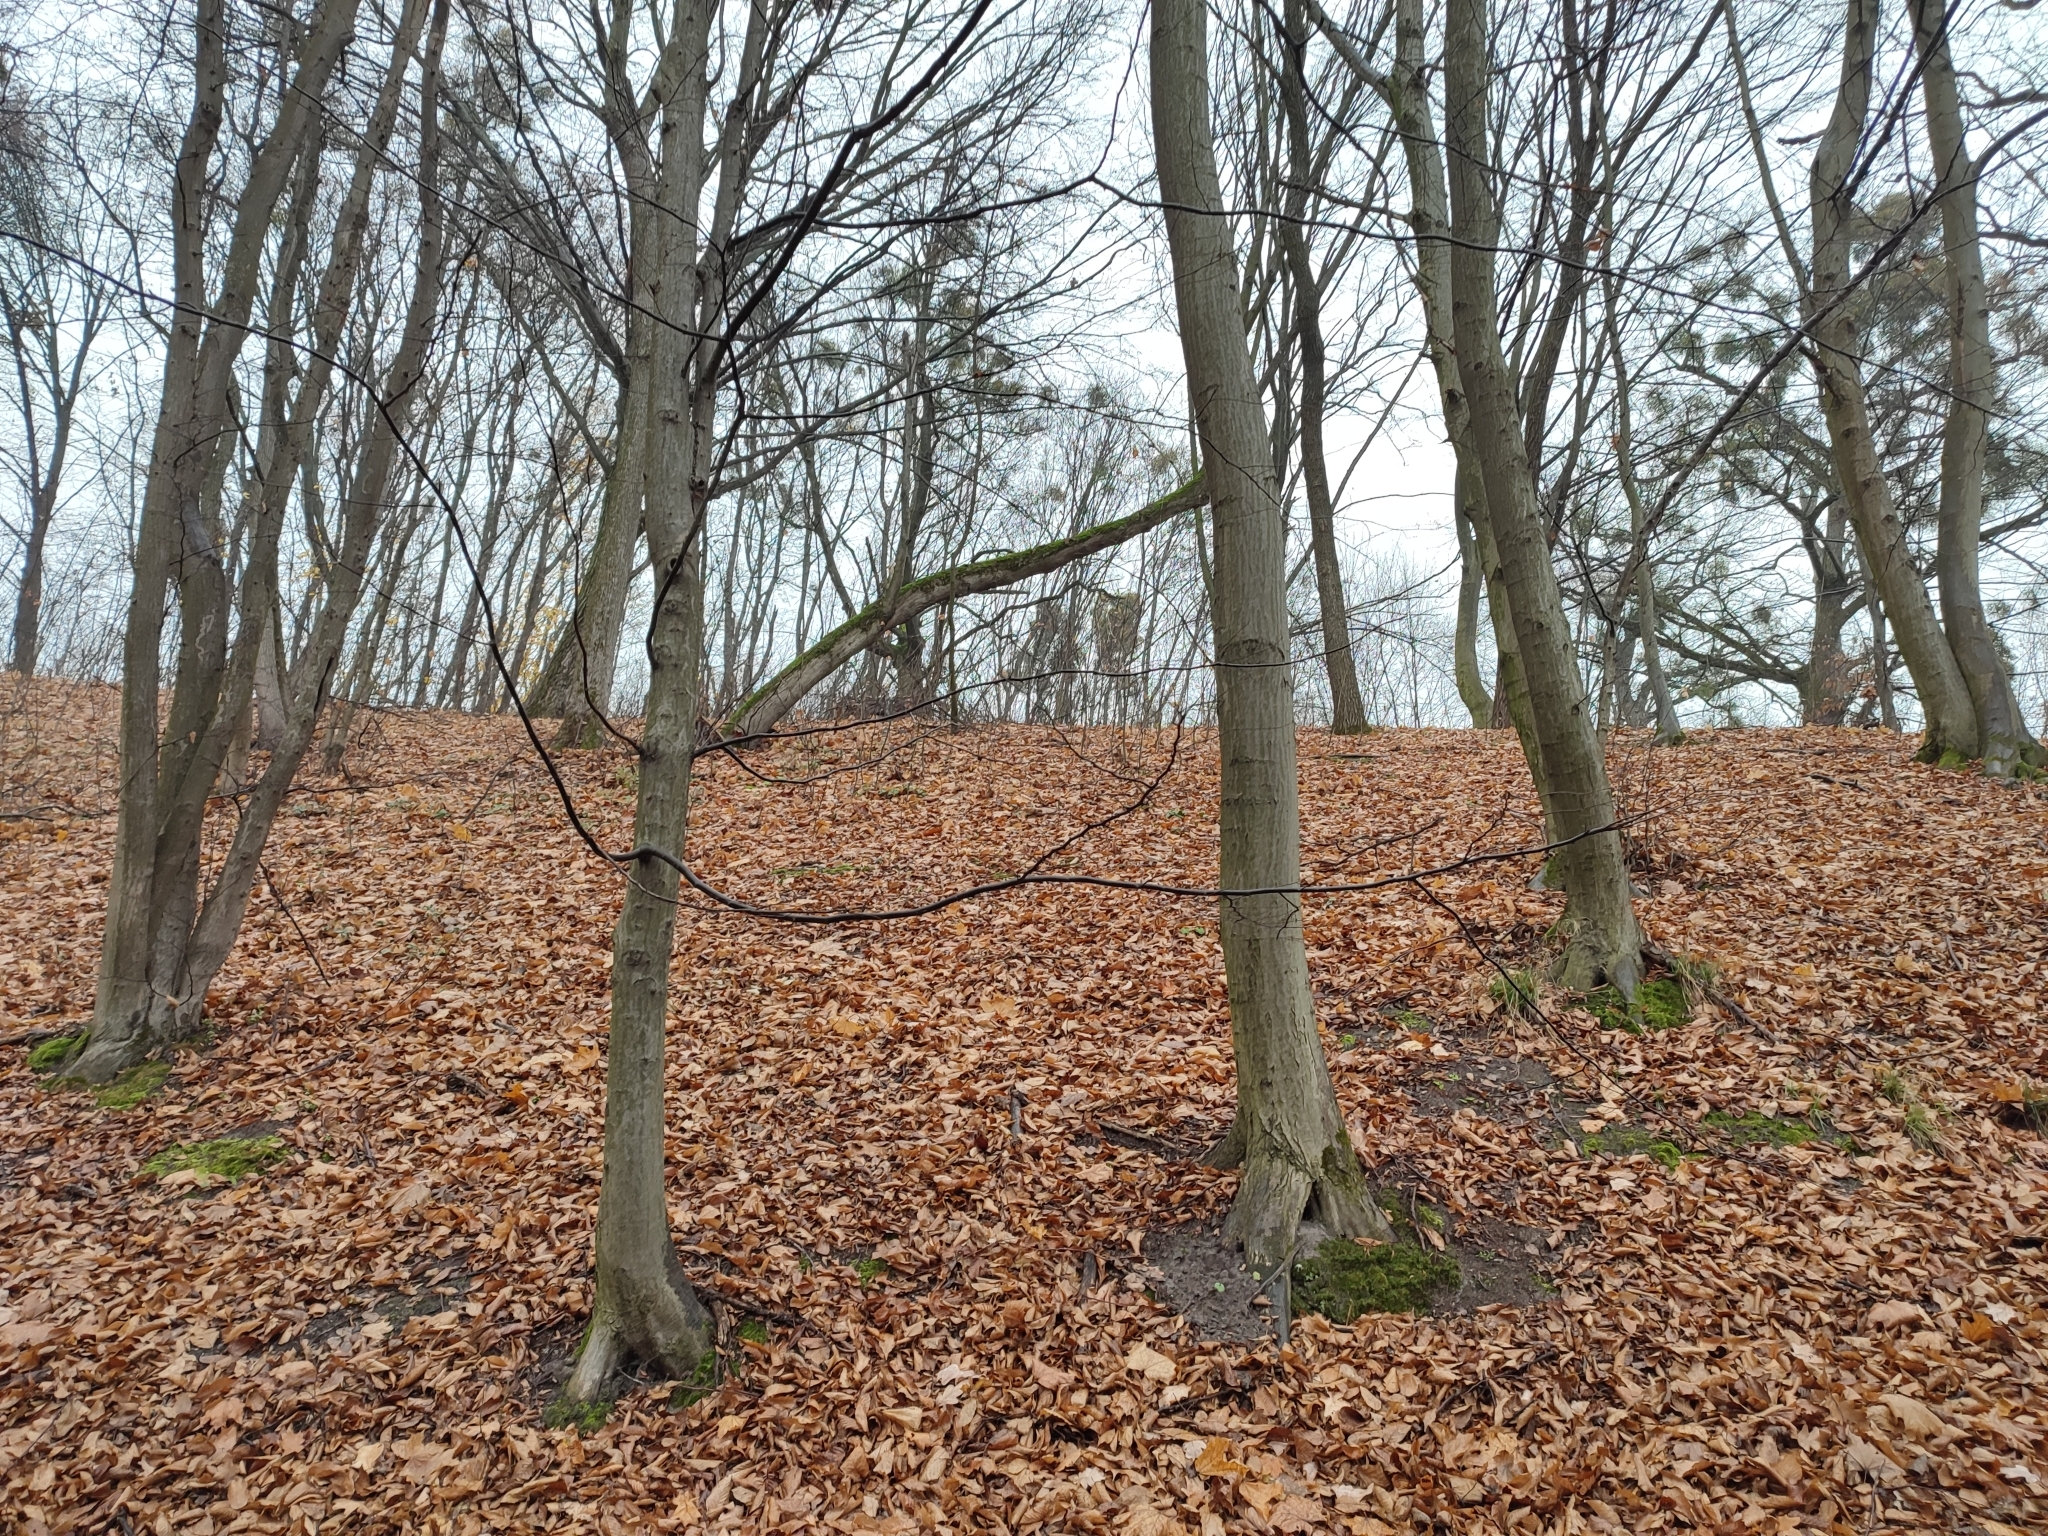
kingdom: Plantae
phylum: Tracheophyta
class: Magnoliopsida
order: Fagales
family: Betulaceae
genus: Carpinus
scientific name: Carpinus betulus
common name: Hornbeam
